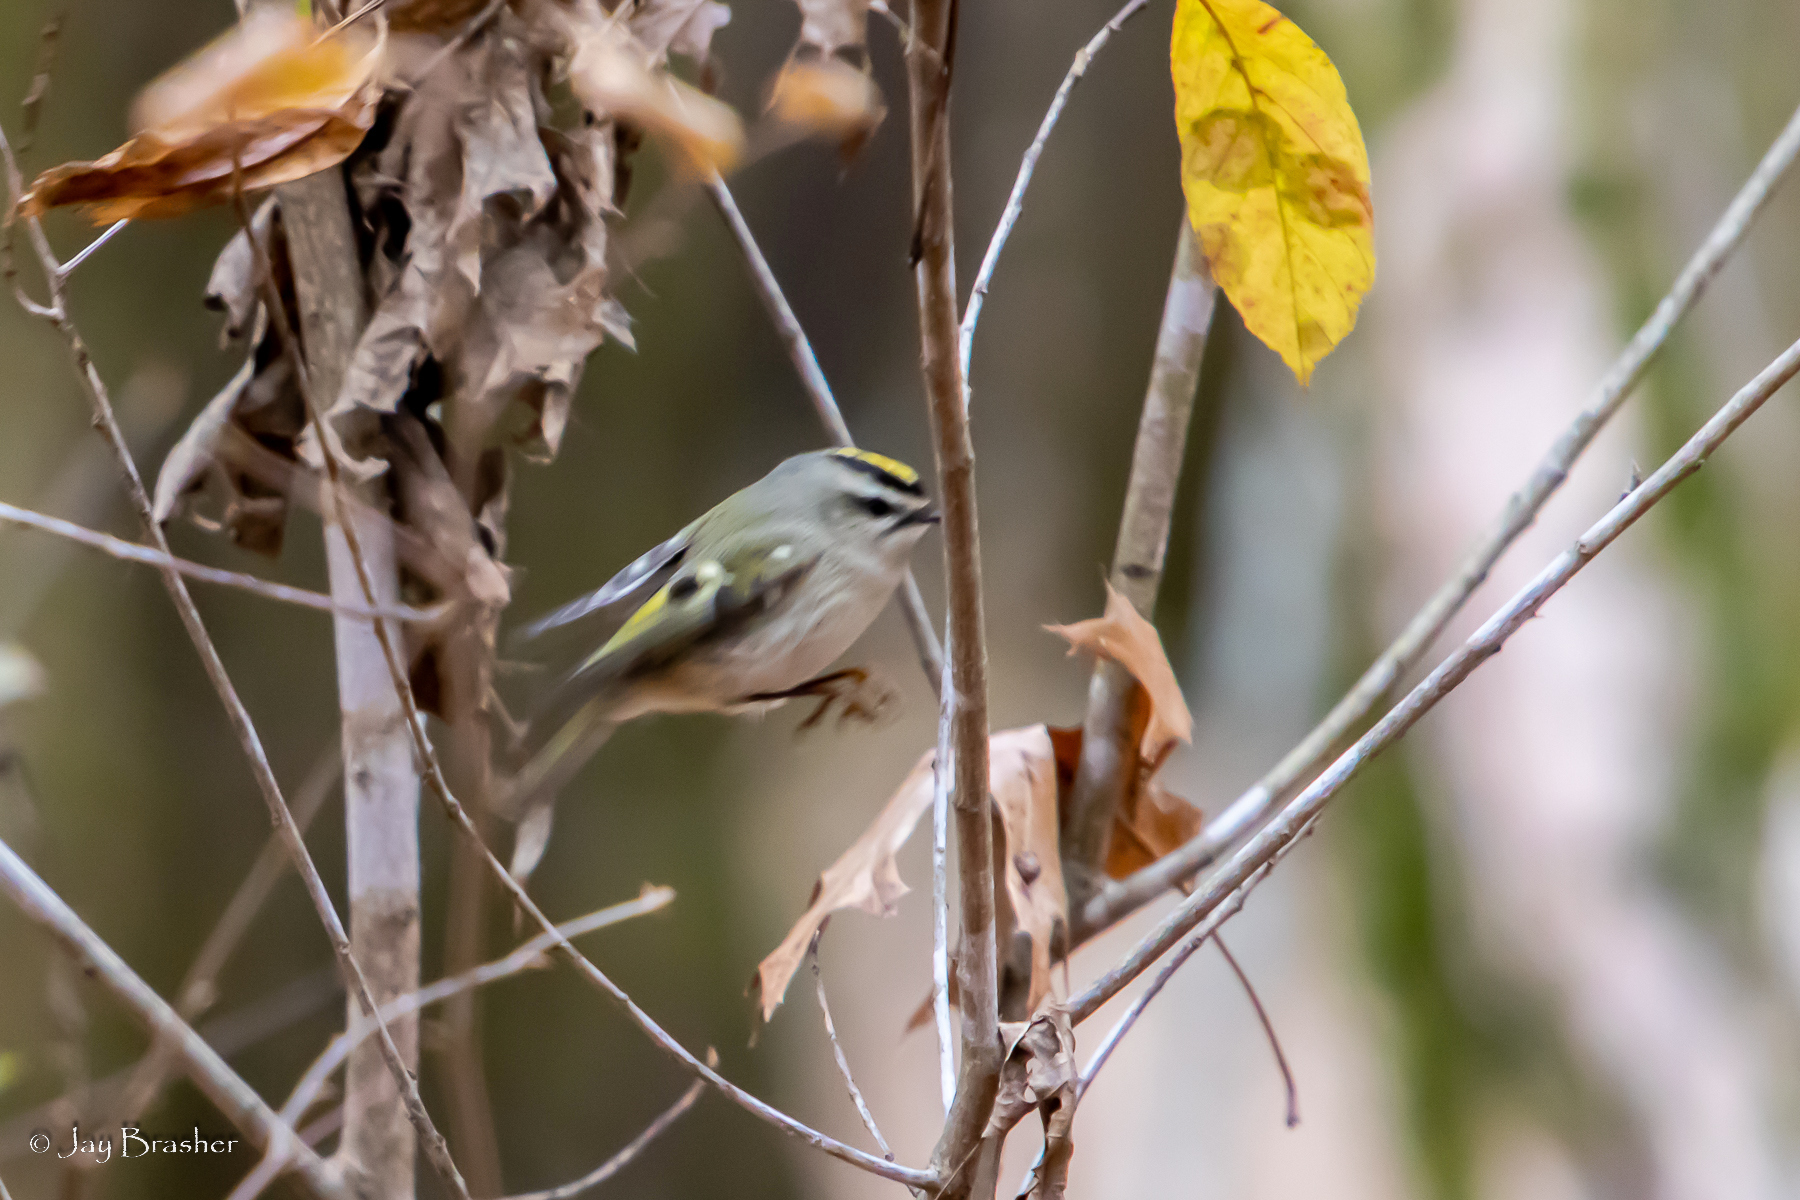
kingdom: Animalia
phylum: Chordata
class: Aves
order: Passeriformes
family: Regulidae
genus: Regulus
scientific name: Regulus satrapa
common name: Golden-crowned kinglet
